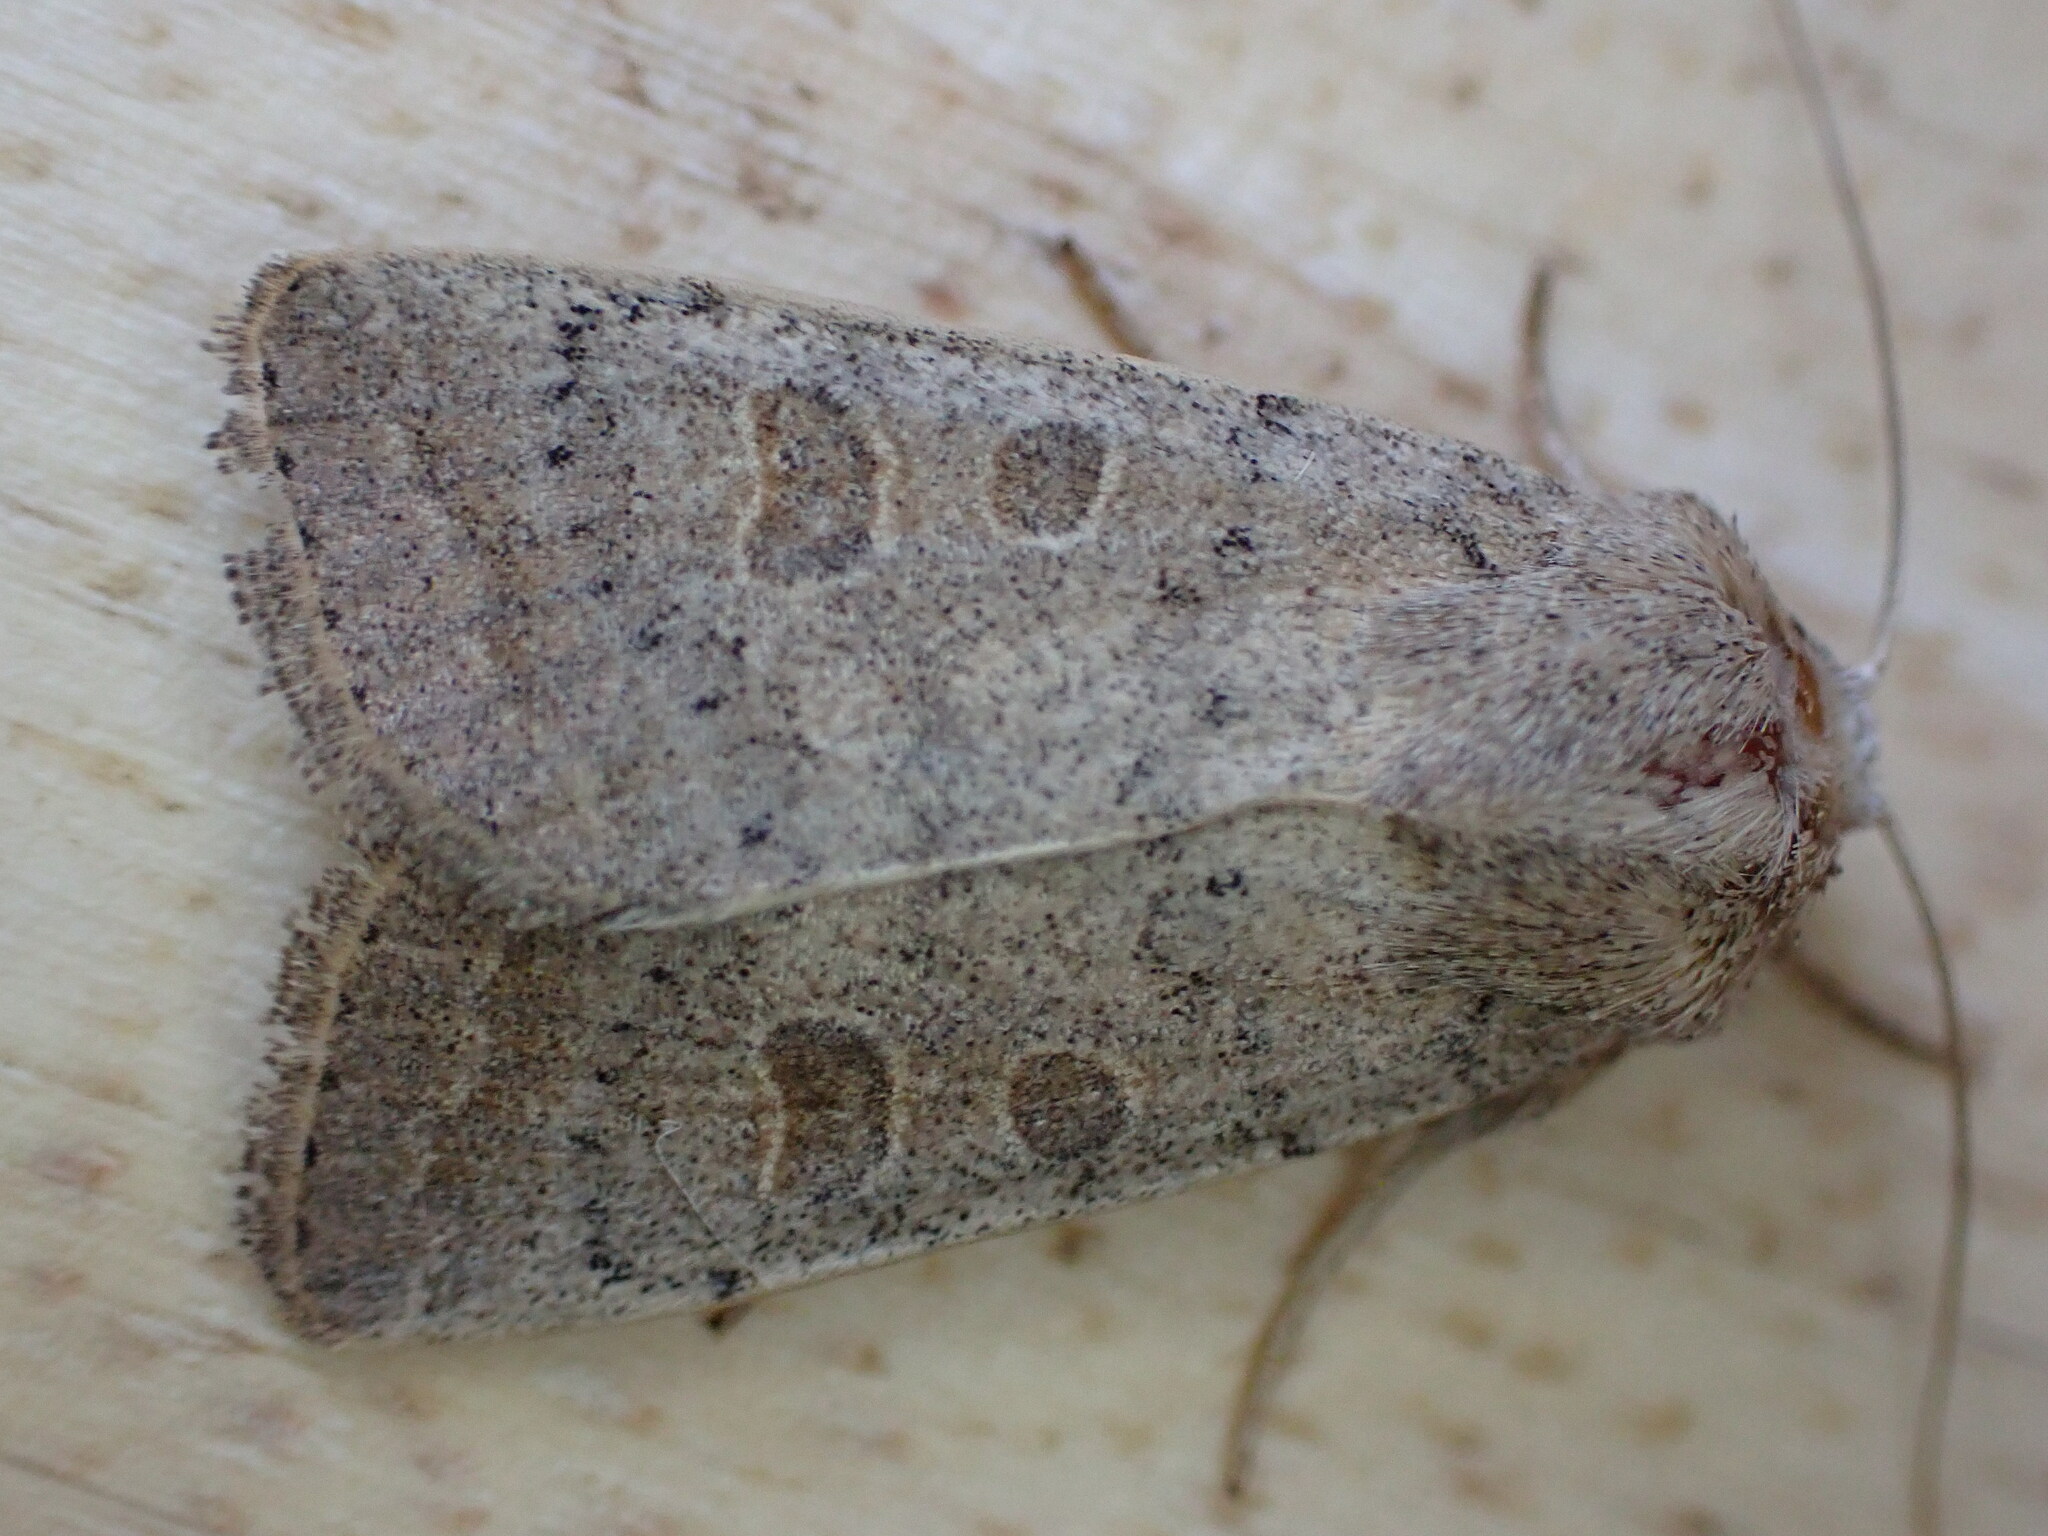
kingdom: Animalia
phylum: Arthropoda
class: Insecta
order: Lepidoptera
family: Noctuidae
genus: Hoplodrina
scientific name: Hoplodrina ambigua
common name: Vine's rustic
